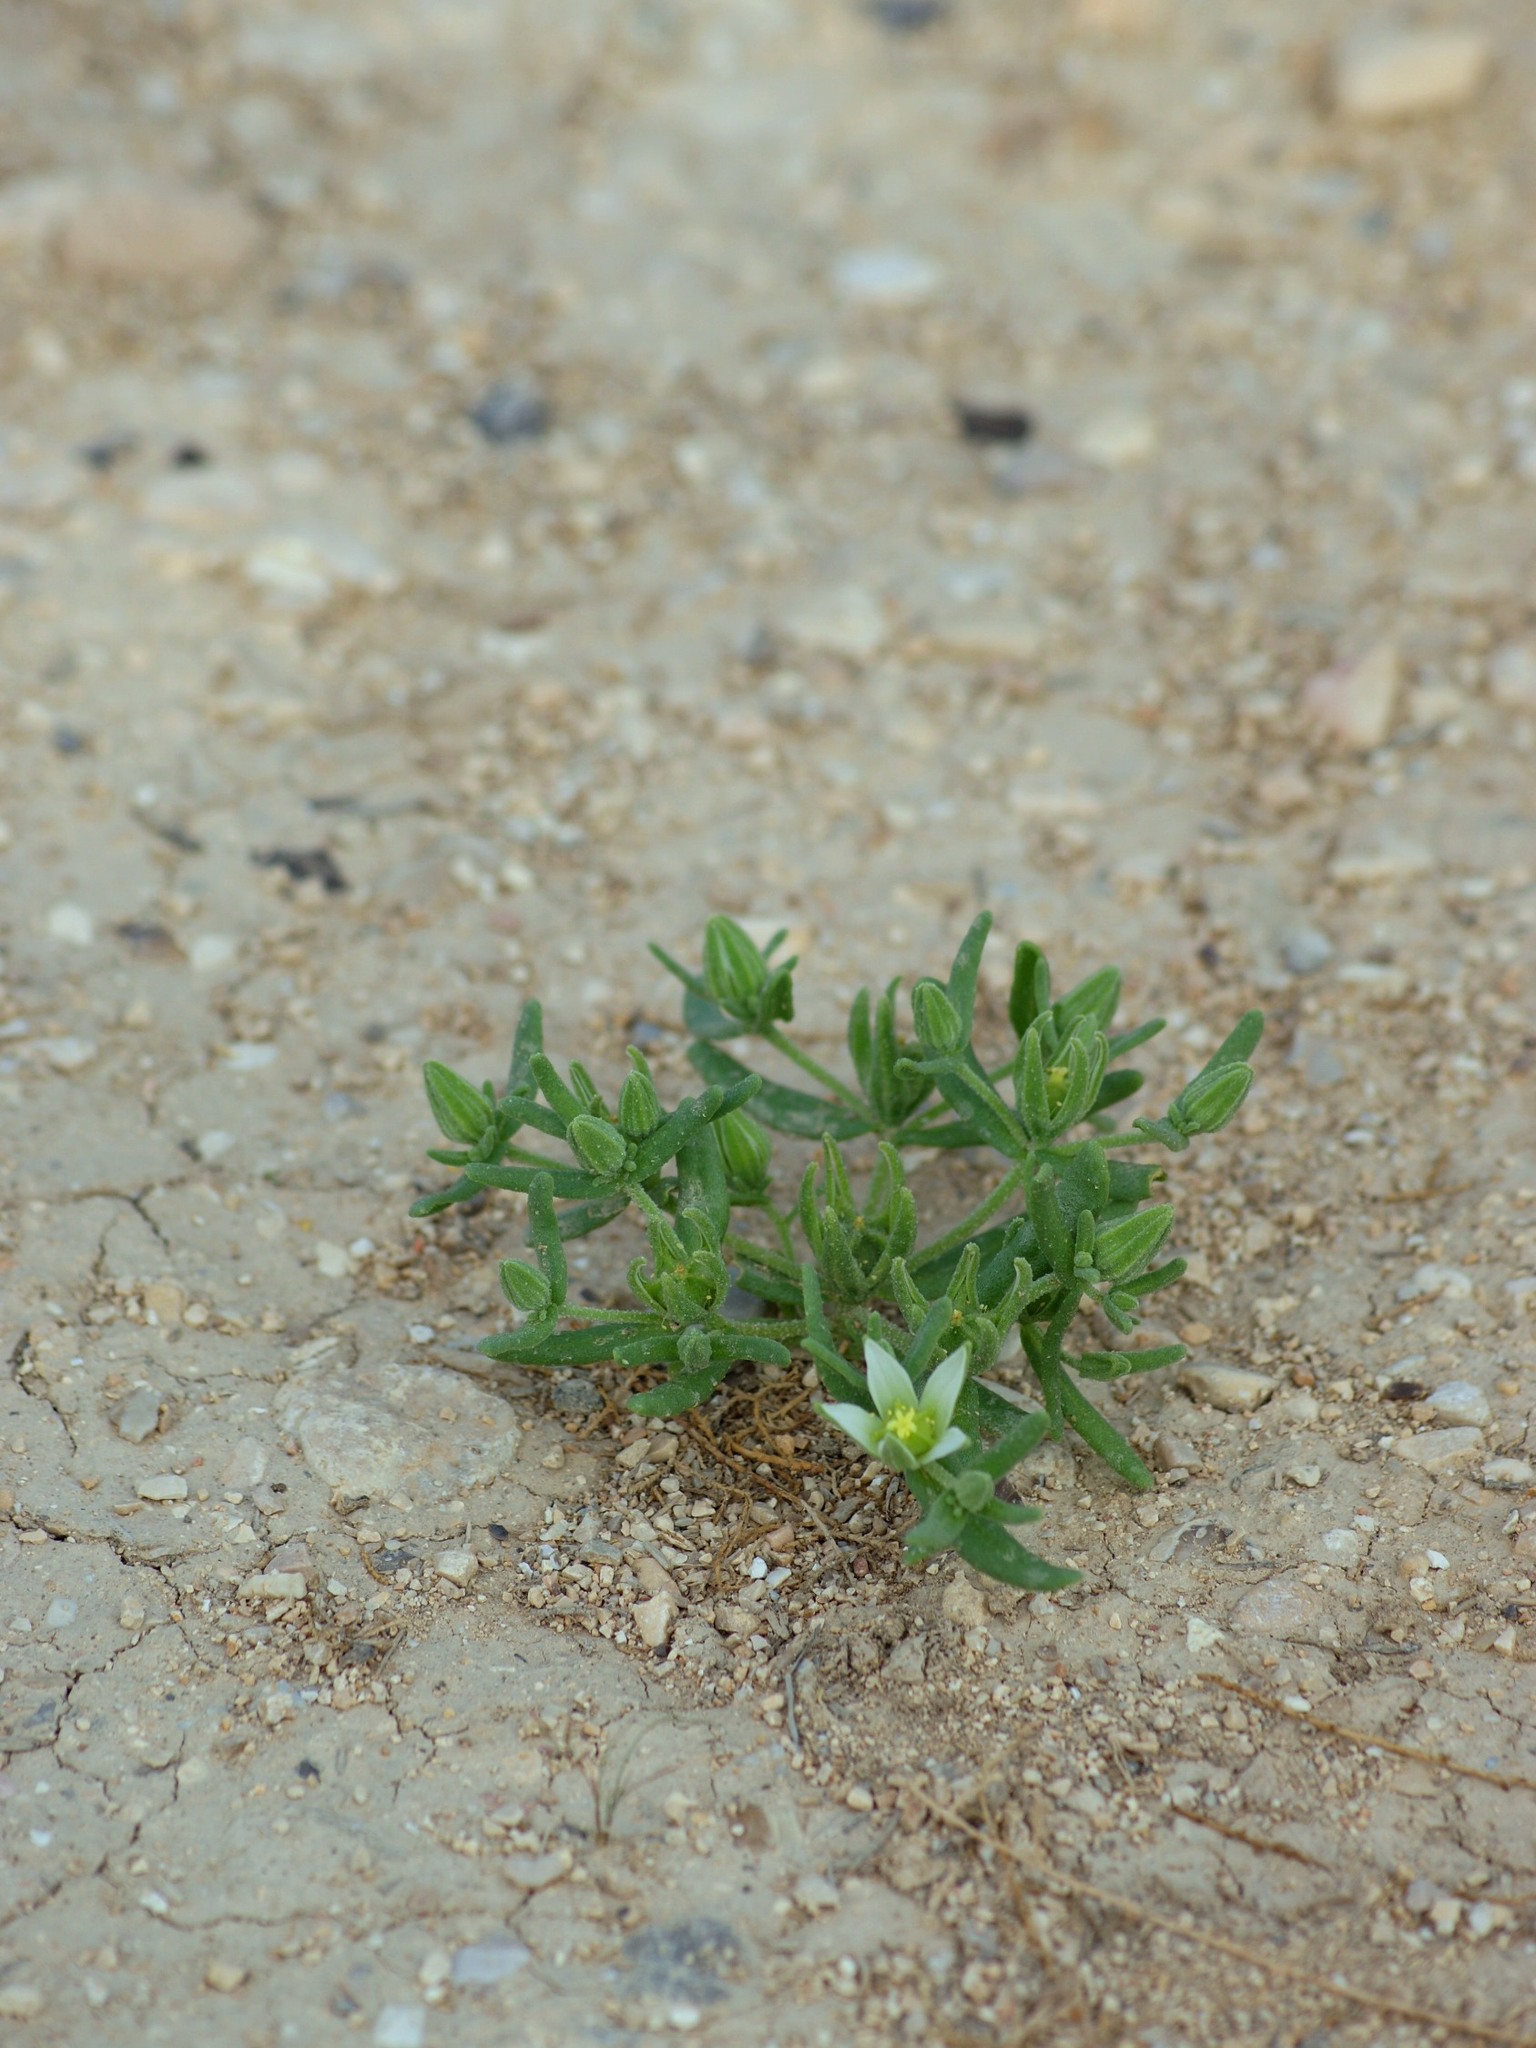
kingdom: Plantae
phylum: Tracheophyta
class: Magnoliopsida
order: Caryophyllales
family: Aizoaceae
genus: Aizoanthemopsis
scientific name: Aizoanthemopsis hispanica
